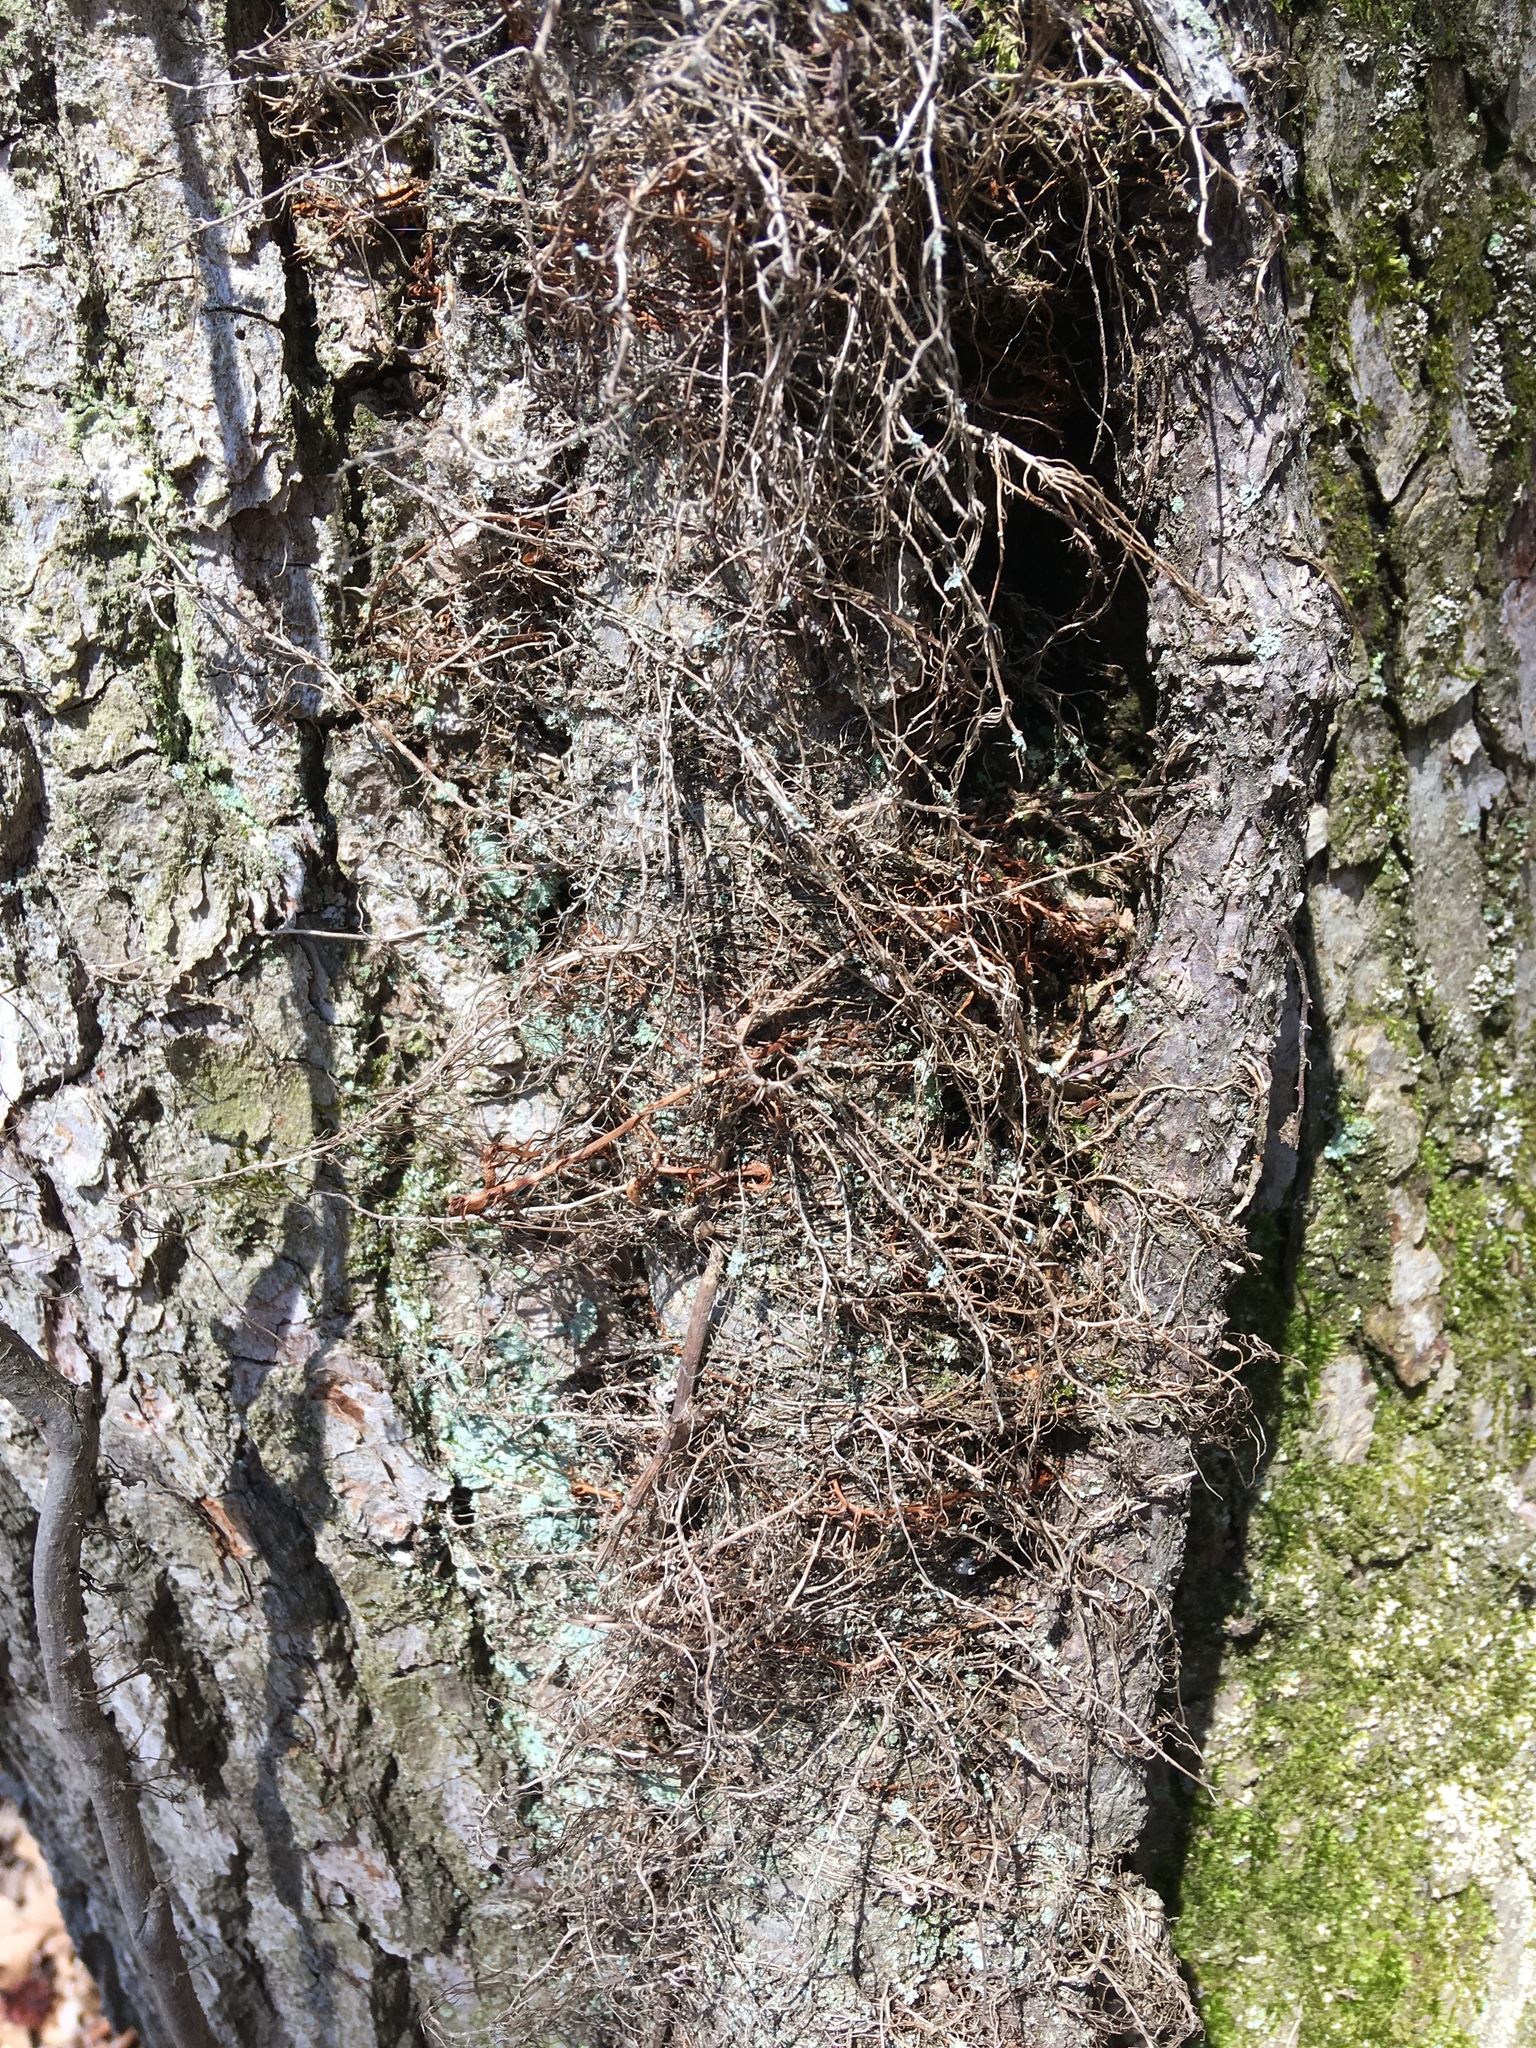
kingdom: Plantae
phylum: Tracheophyta
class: Magnoliopsida
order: Sapindales
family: Anacardiaceae
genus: Toxicodendron
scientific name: Toxicodendron radicans
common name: Poison ivy
